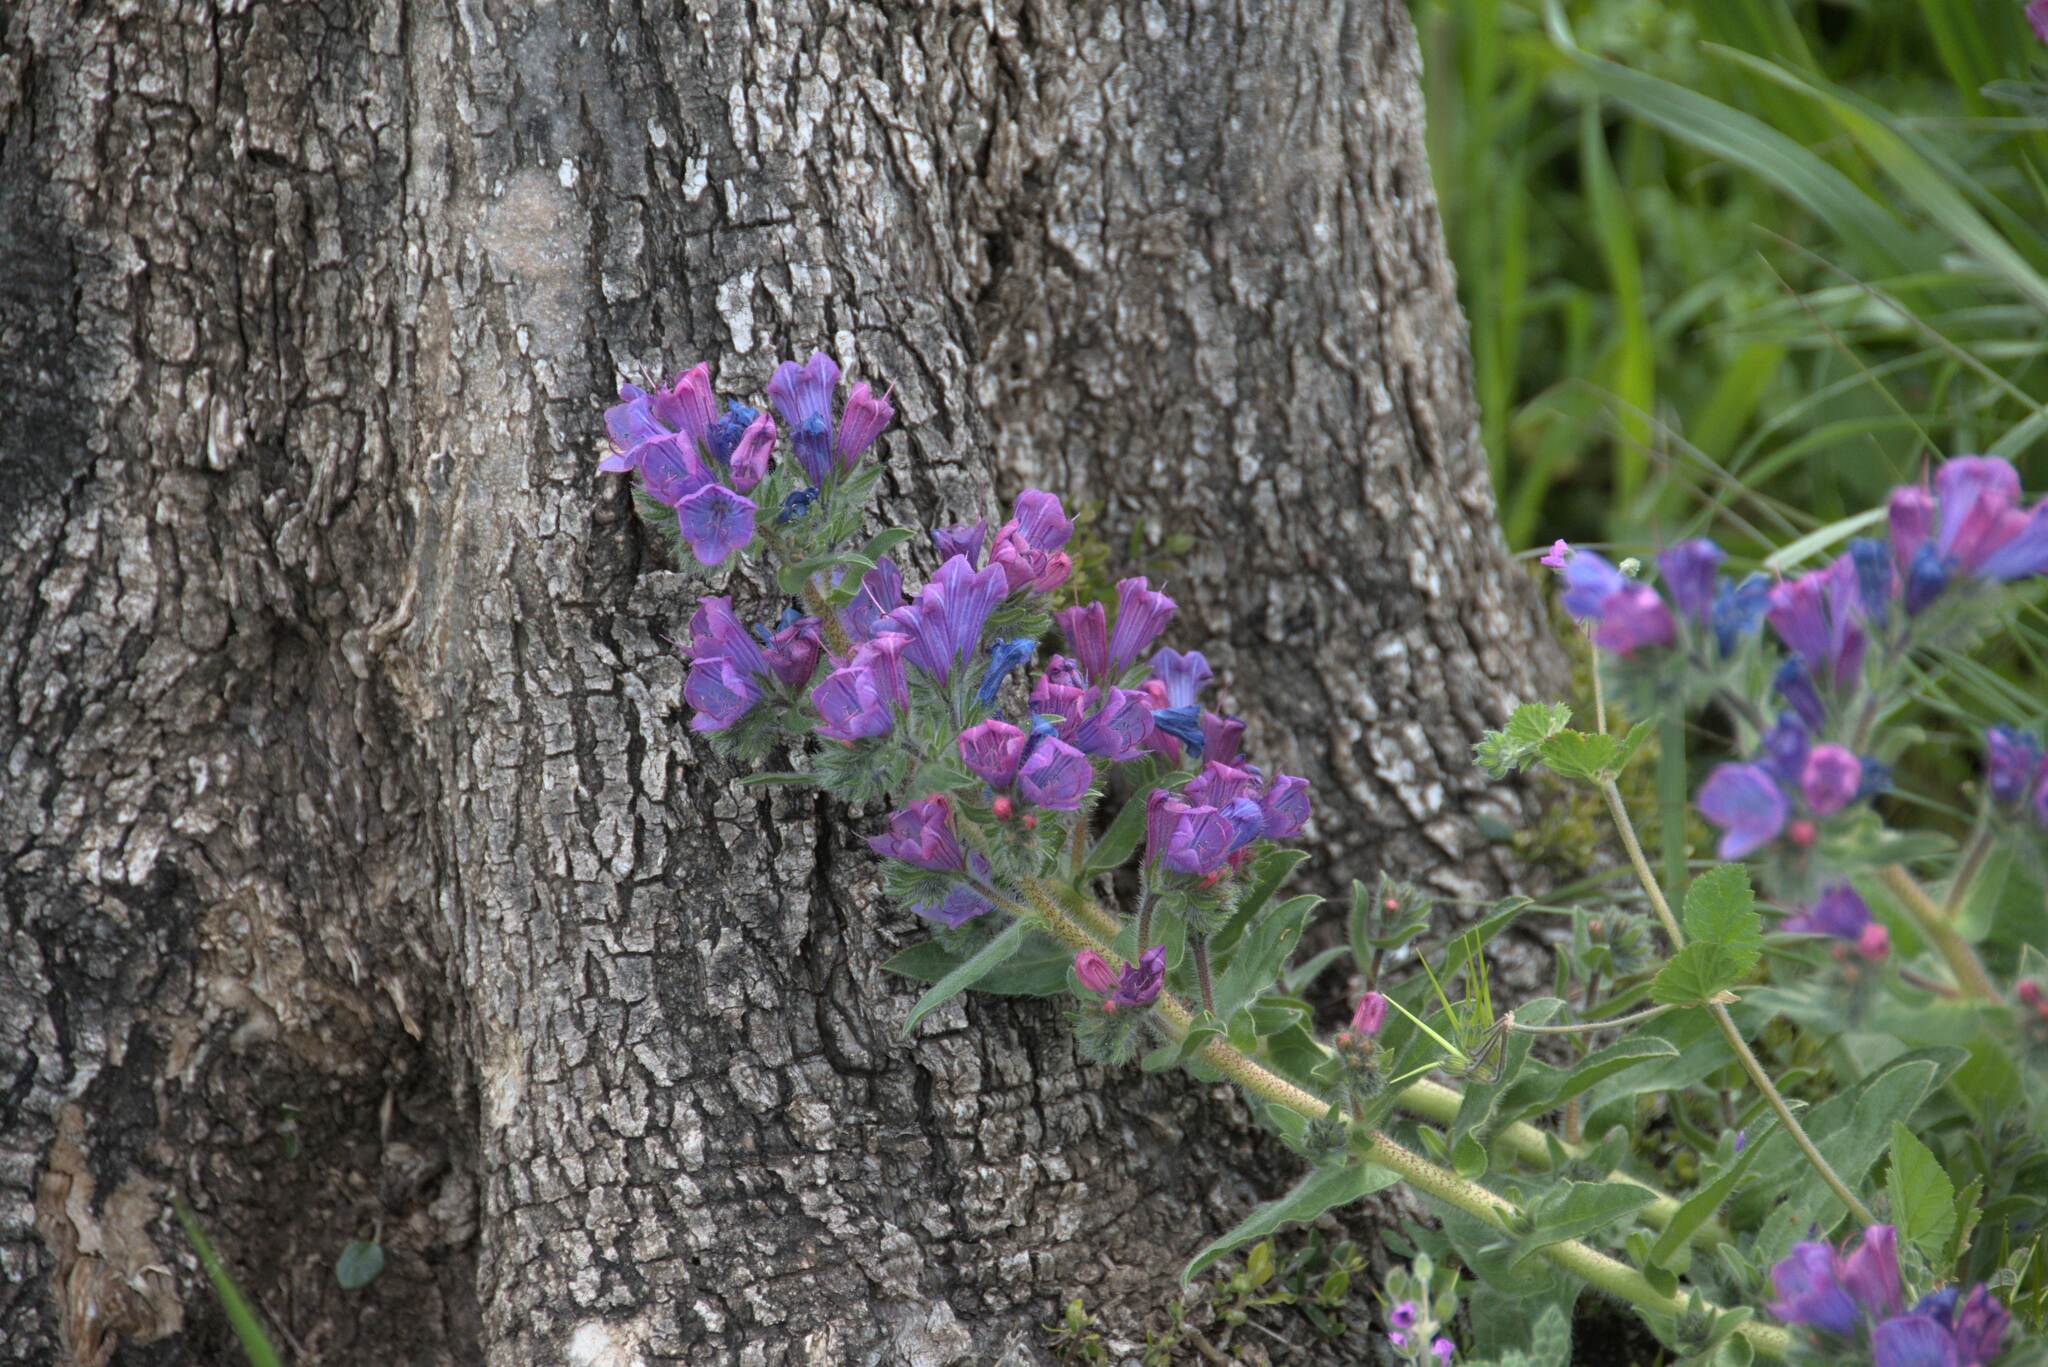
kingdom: Plantae
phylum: Tracheophyta
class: Magnoliopsida
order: Boraginales
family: Boraginaceae
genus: Echium
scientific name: Echium plantagineum
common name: Purple viper's-bugloss
